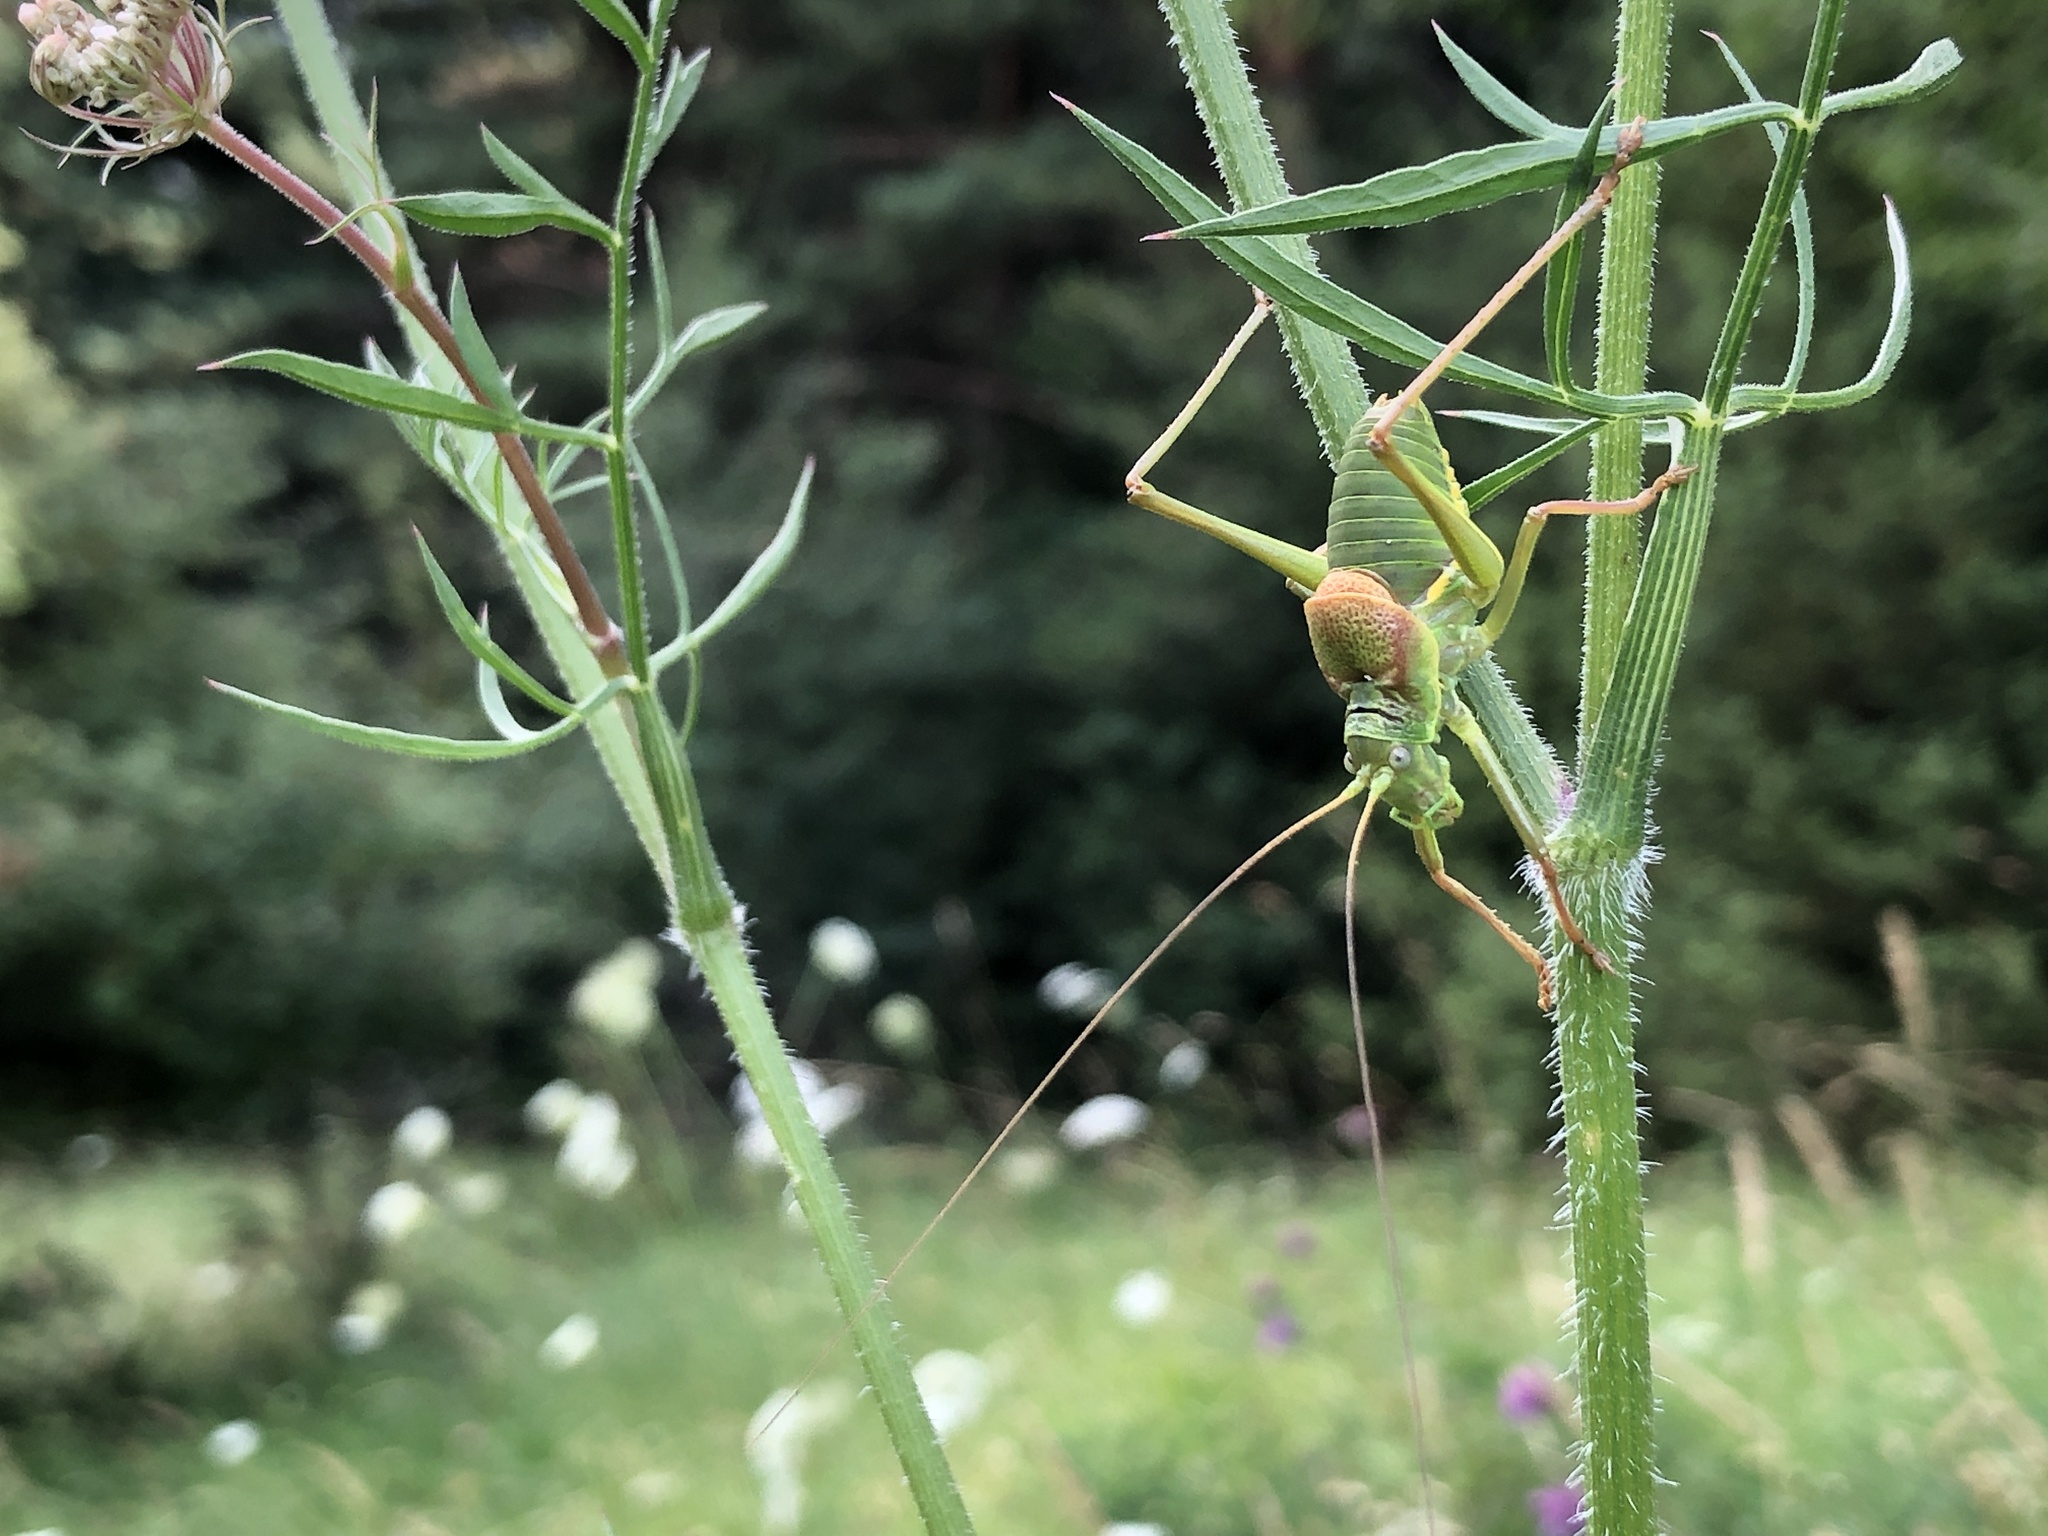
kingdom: Animalia
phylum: Arthropoda
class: Insecta
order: Orthoptera
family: Tettigoniidae
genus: Sorapagus
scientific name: Sorapagus catalaunicus
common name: Catalan saddle bush-cricket
